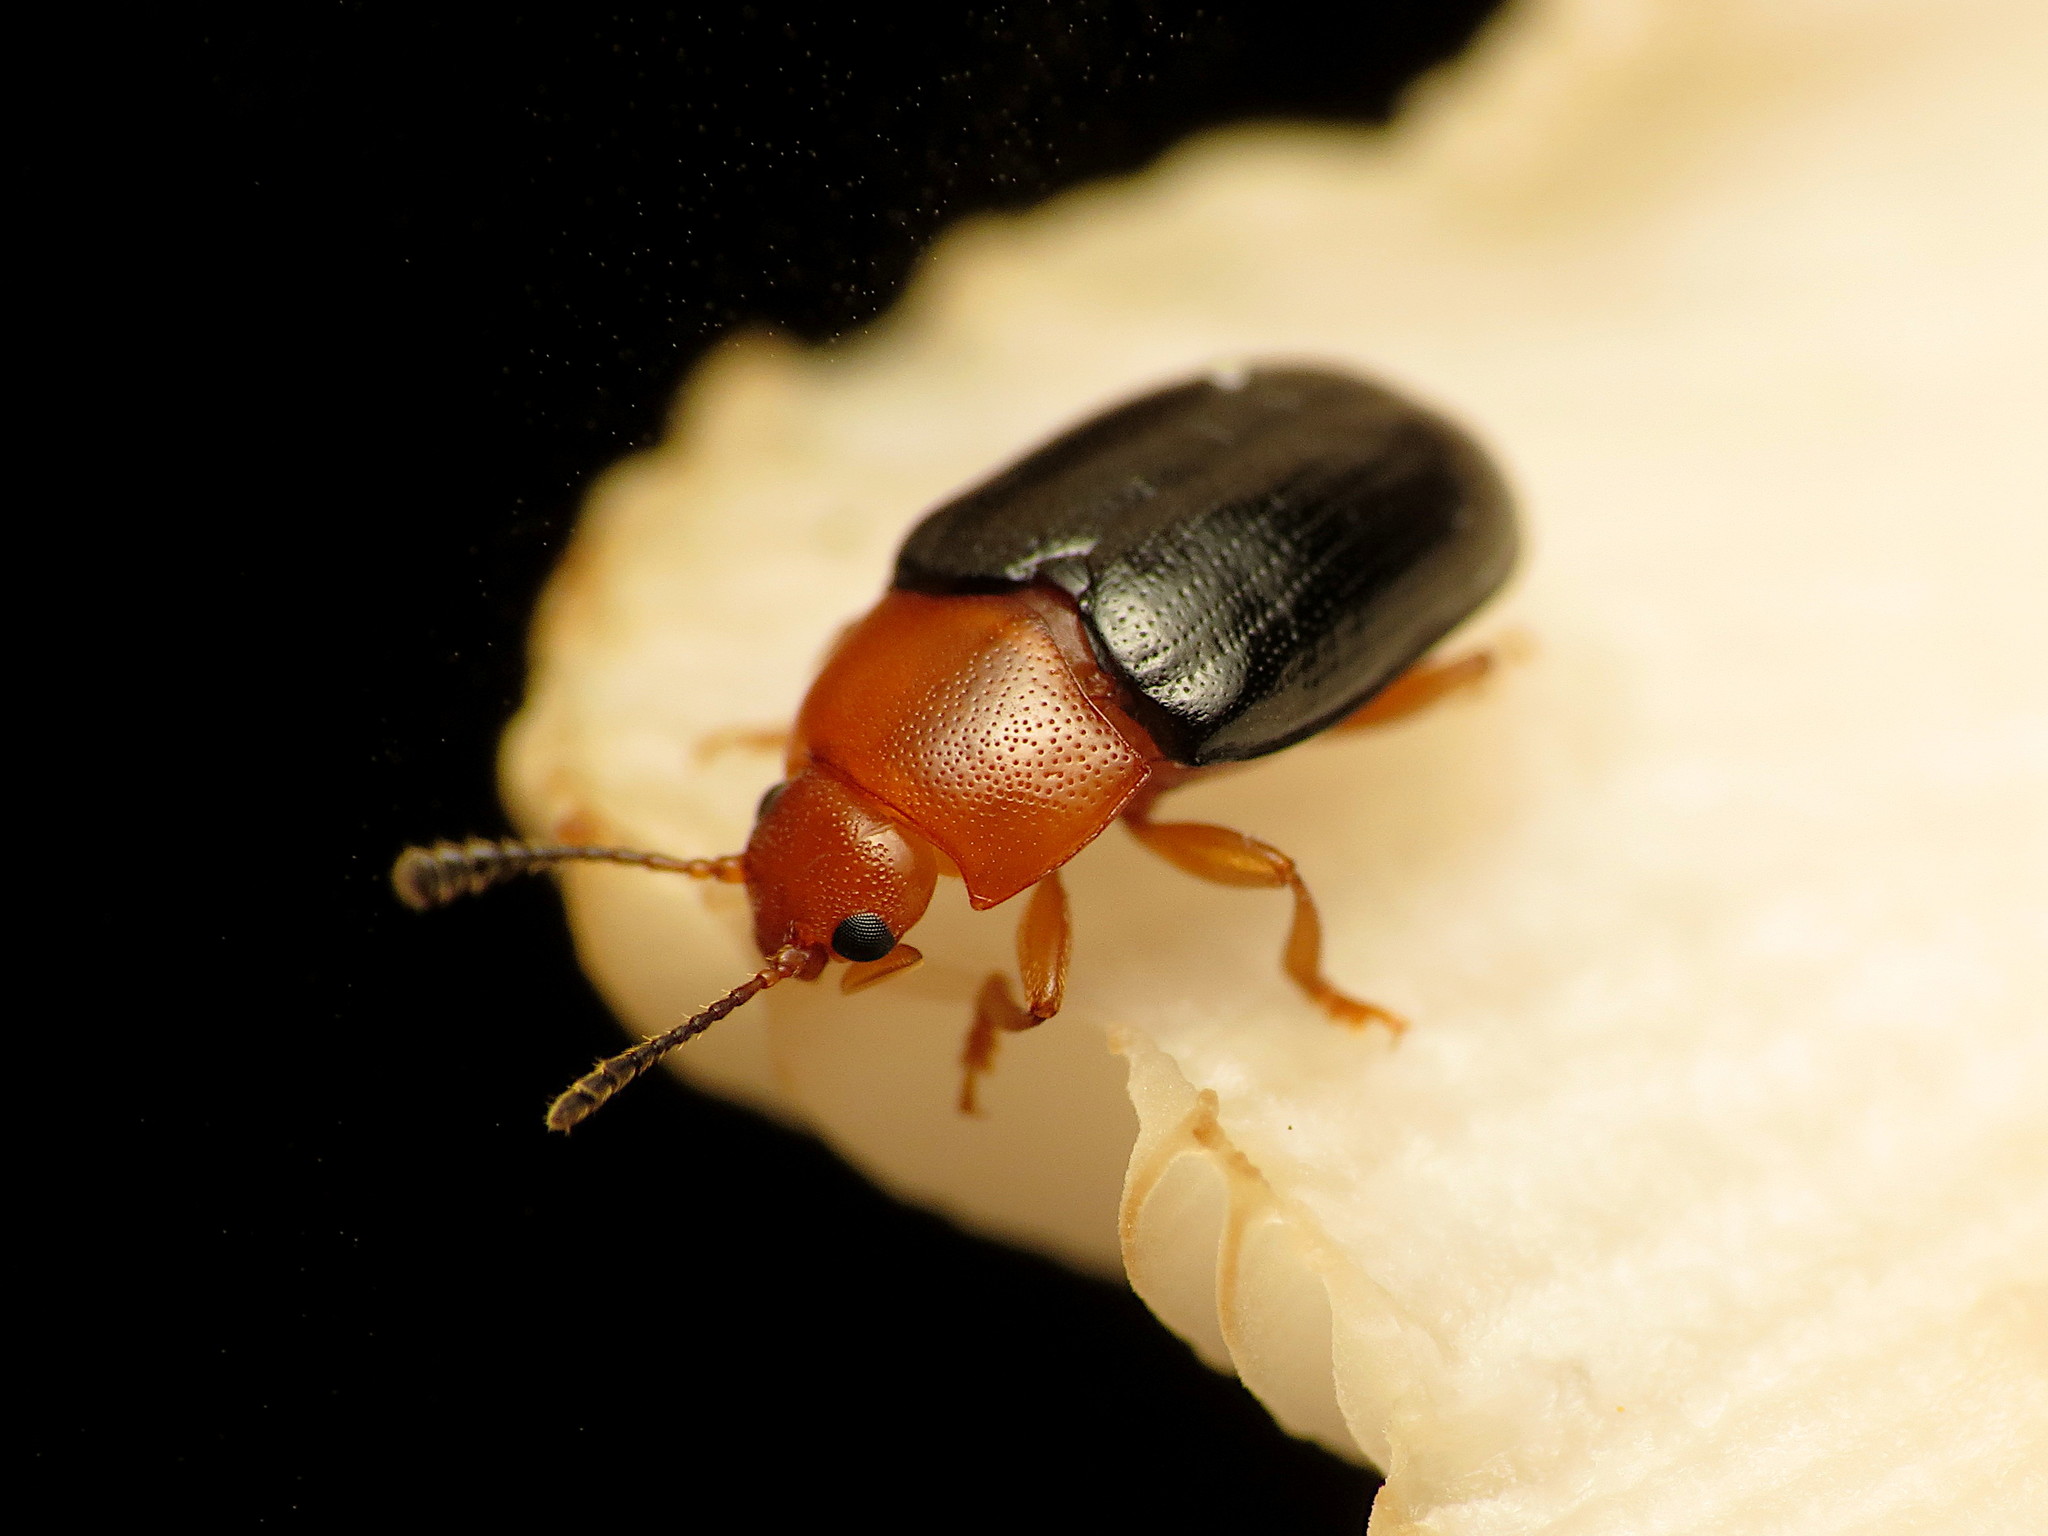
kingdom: Animalia
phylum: Arthropoda
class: Insecta
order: Coleoptera
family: Erotylidae
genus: Triplax
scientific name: Triplax thoracica
